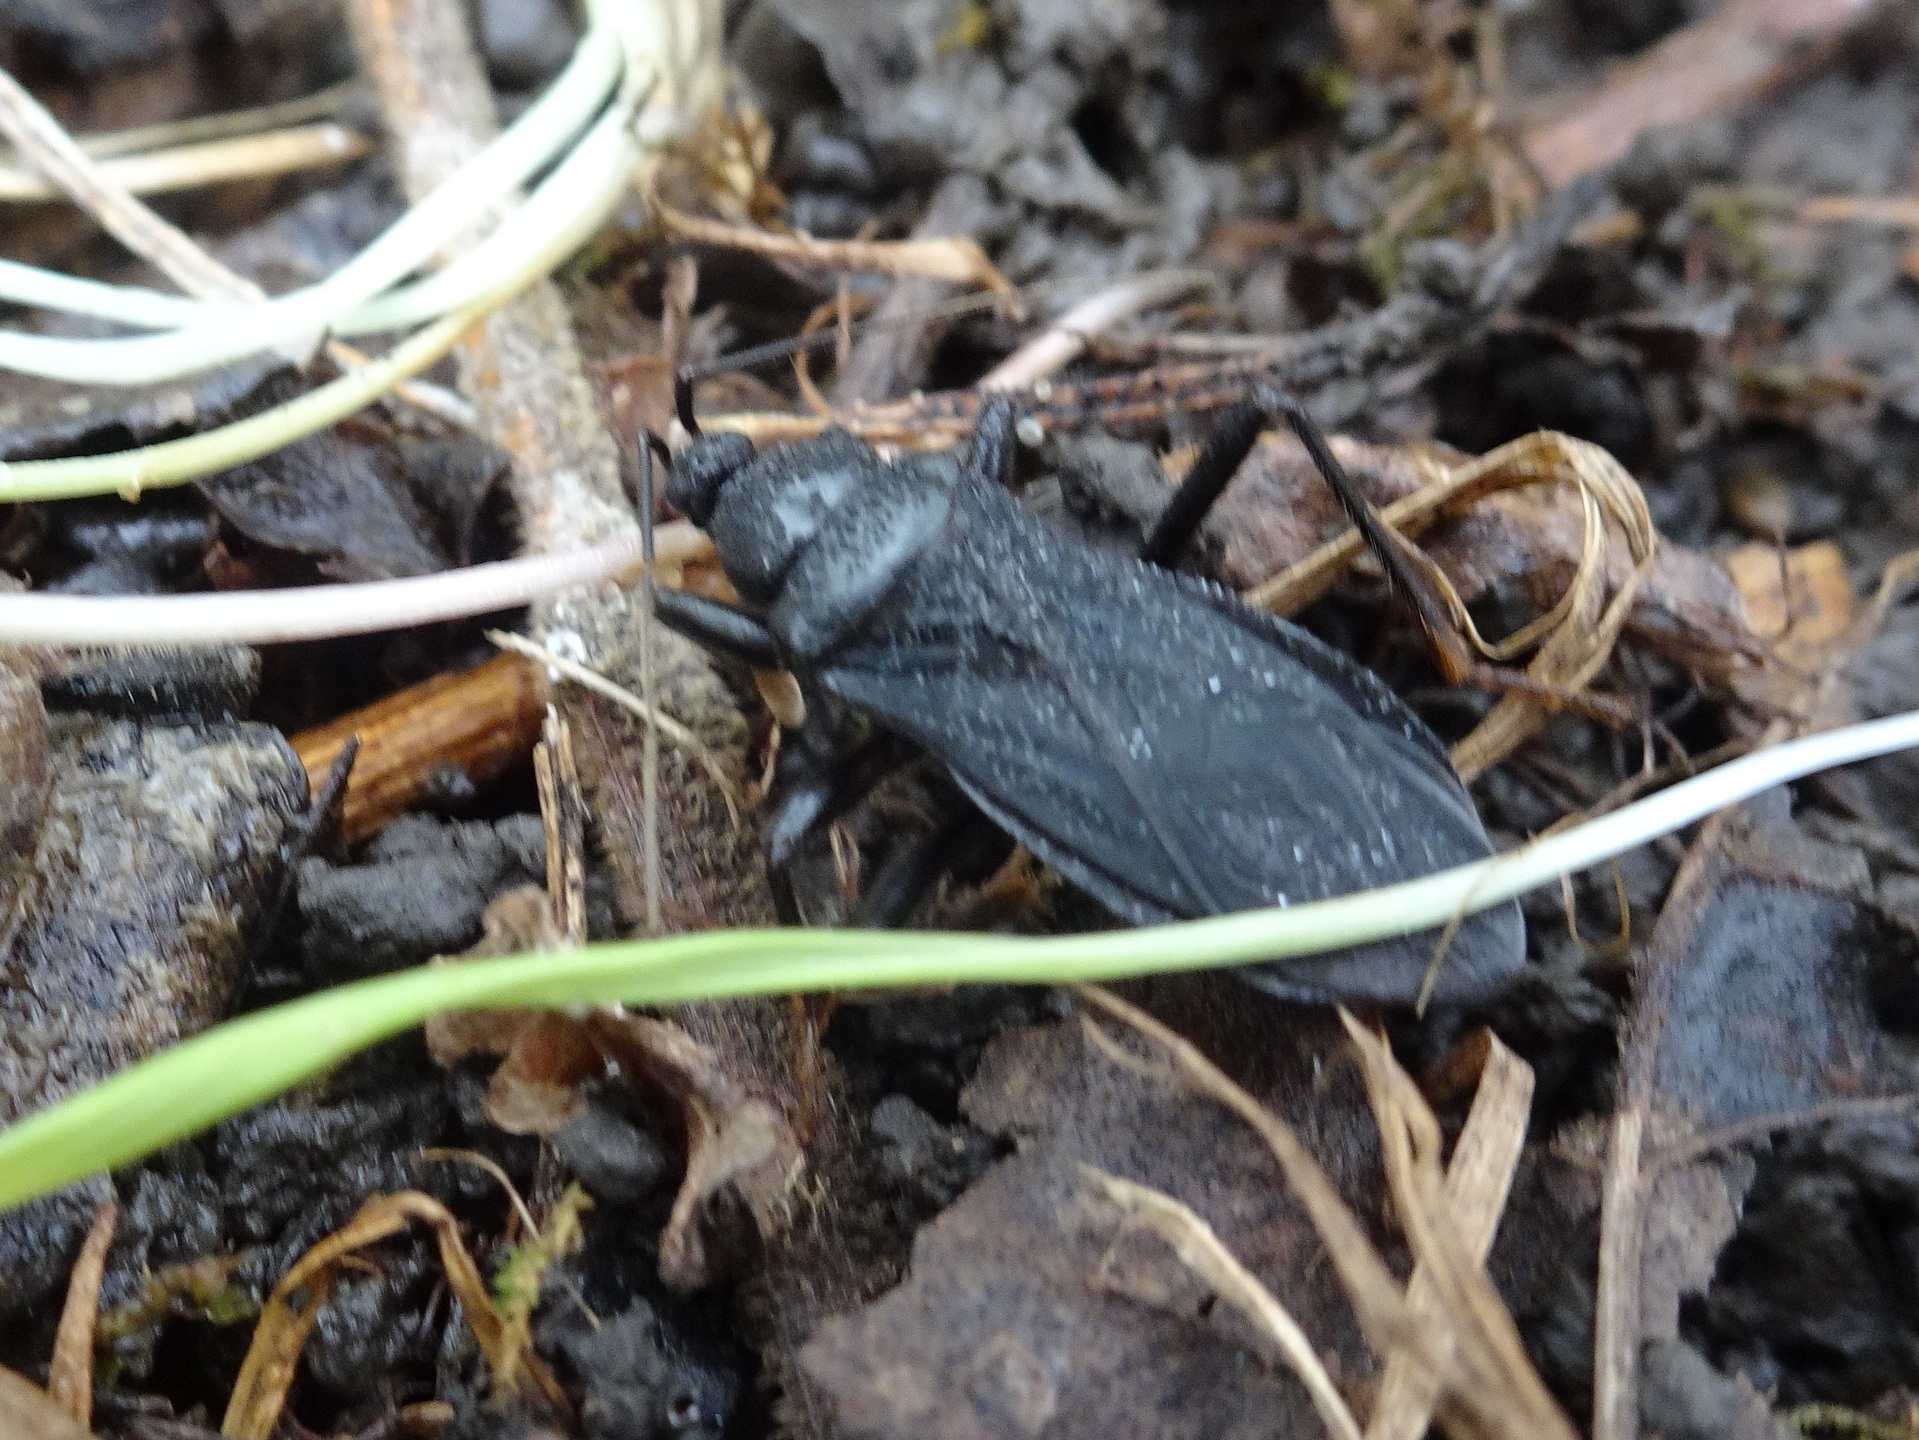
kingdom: Animalia
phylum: Arthropoda
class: Insecta
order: Hemiptera
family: Reduviidae
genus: Melanolestes
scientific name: Melanolestes picipes
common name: Assassin bug
